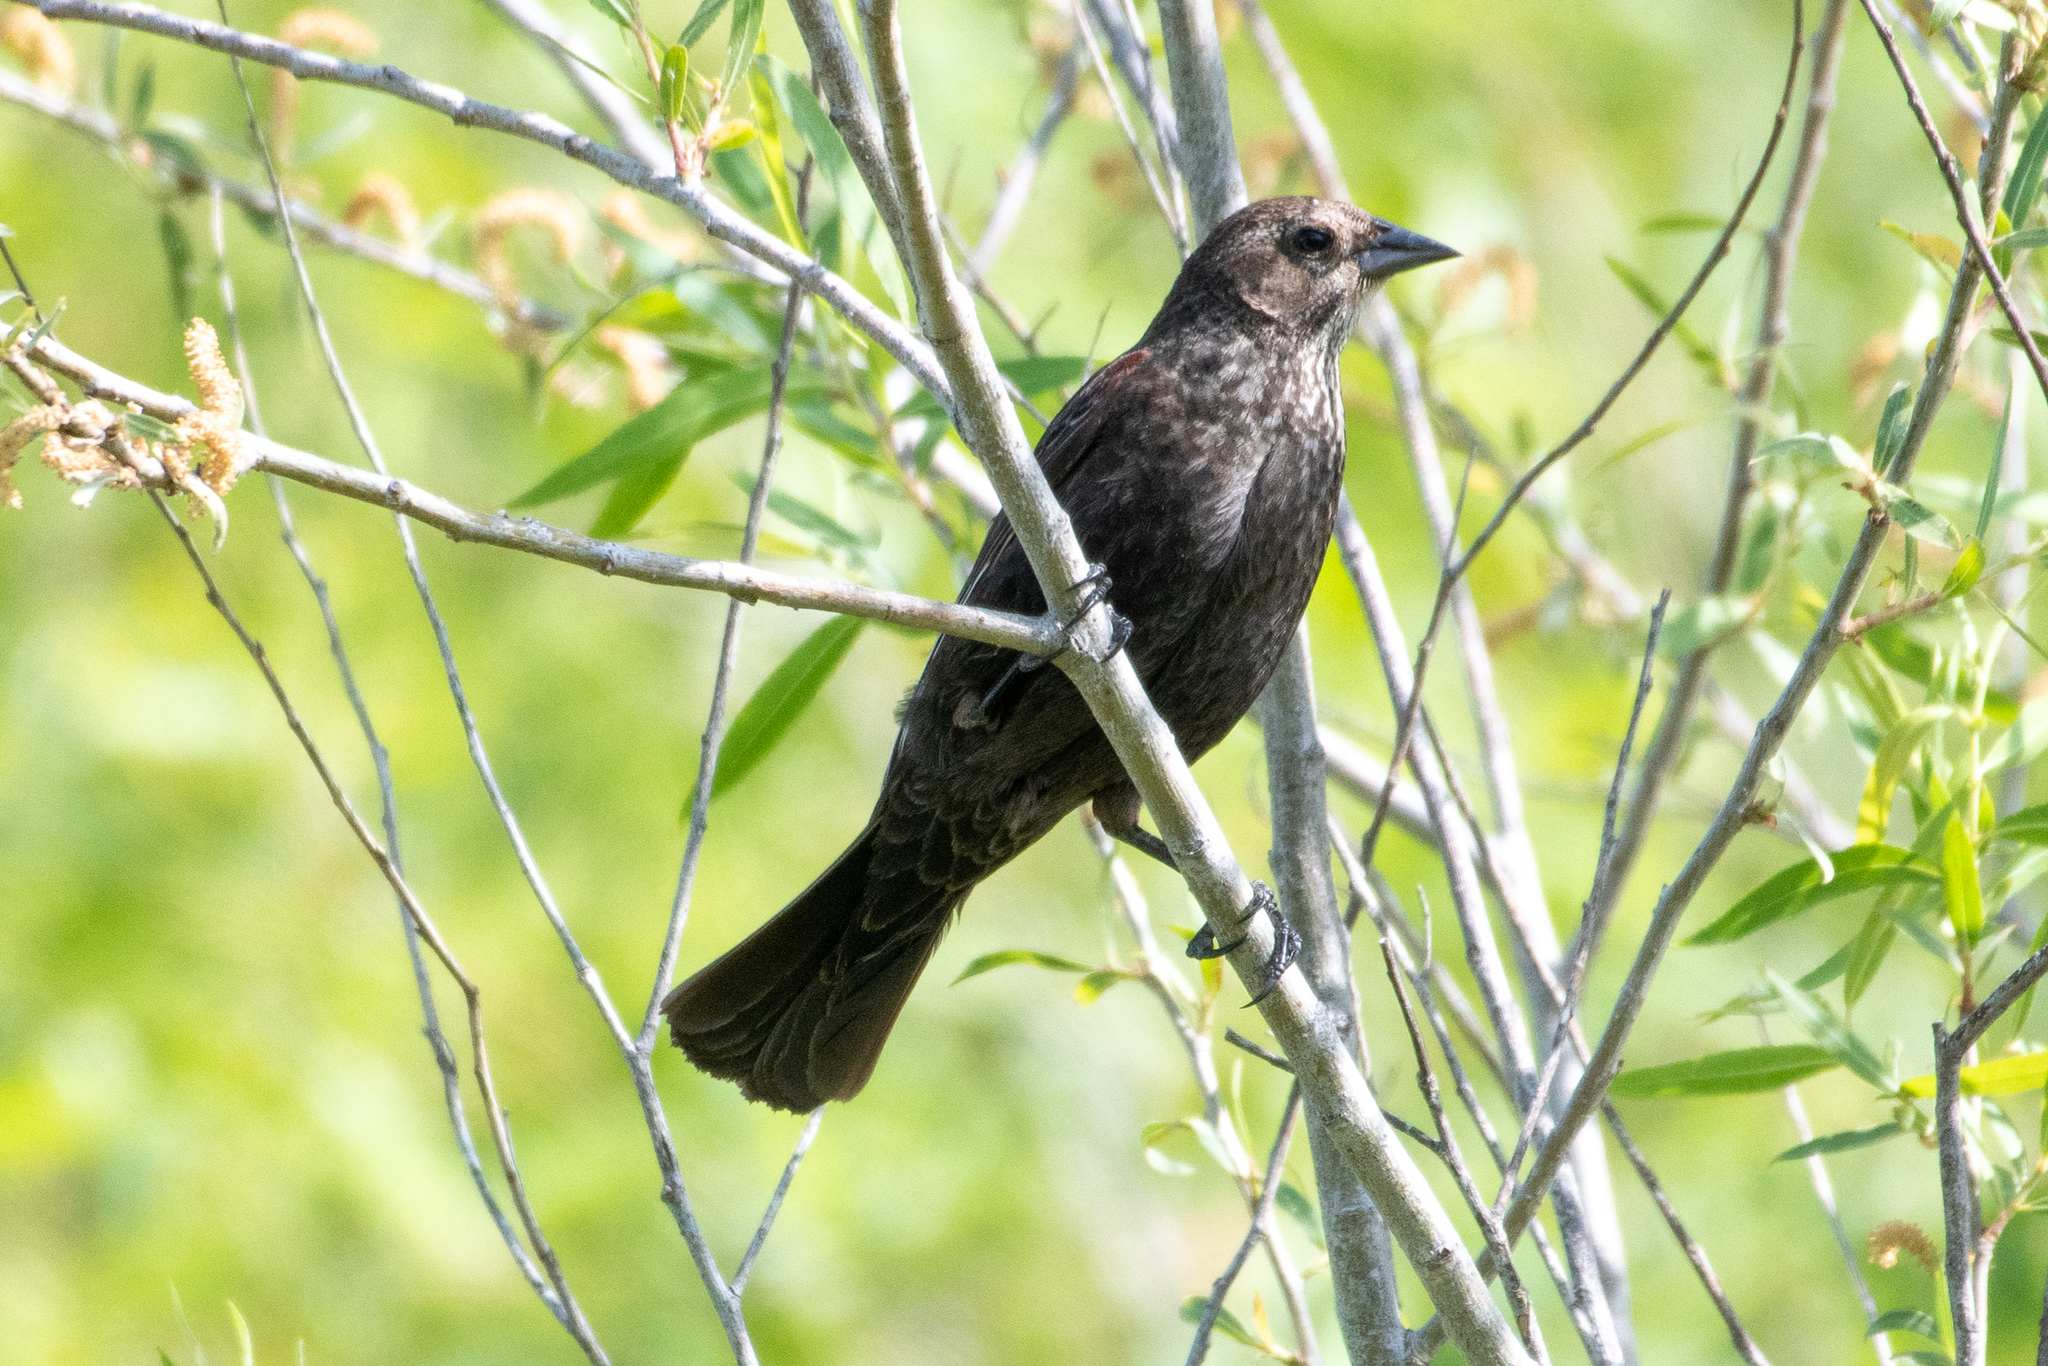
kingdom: Animalia
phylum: Chordata
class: Aves
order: Passeriformes
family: Icteridae
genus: Agelaius
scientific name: Agelaius phoeniceus
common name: Red-winged blackbird
